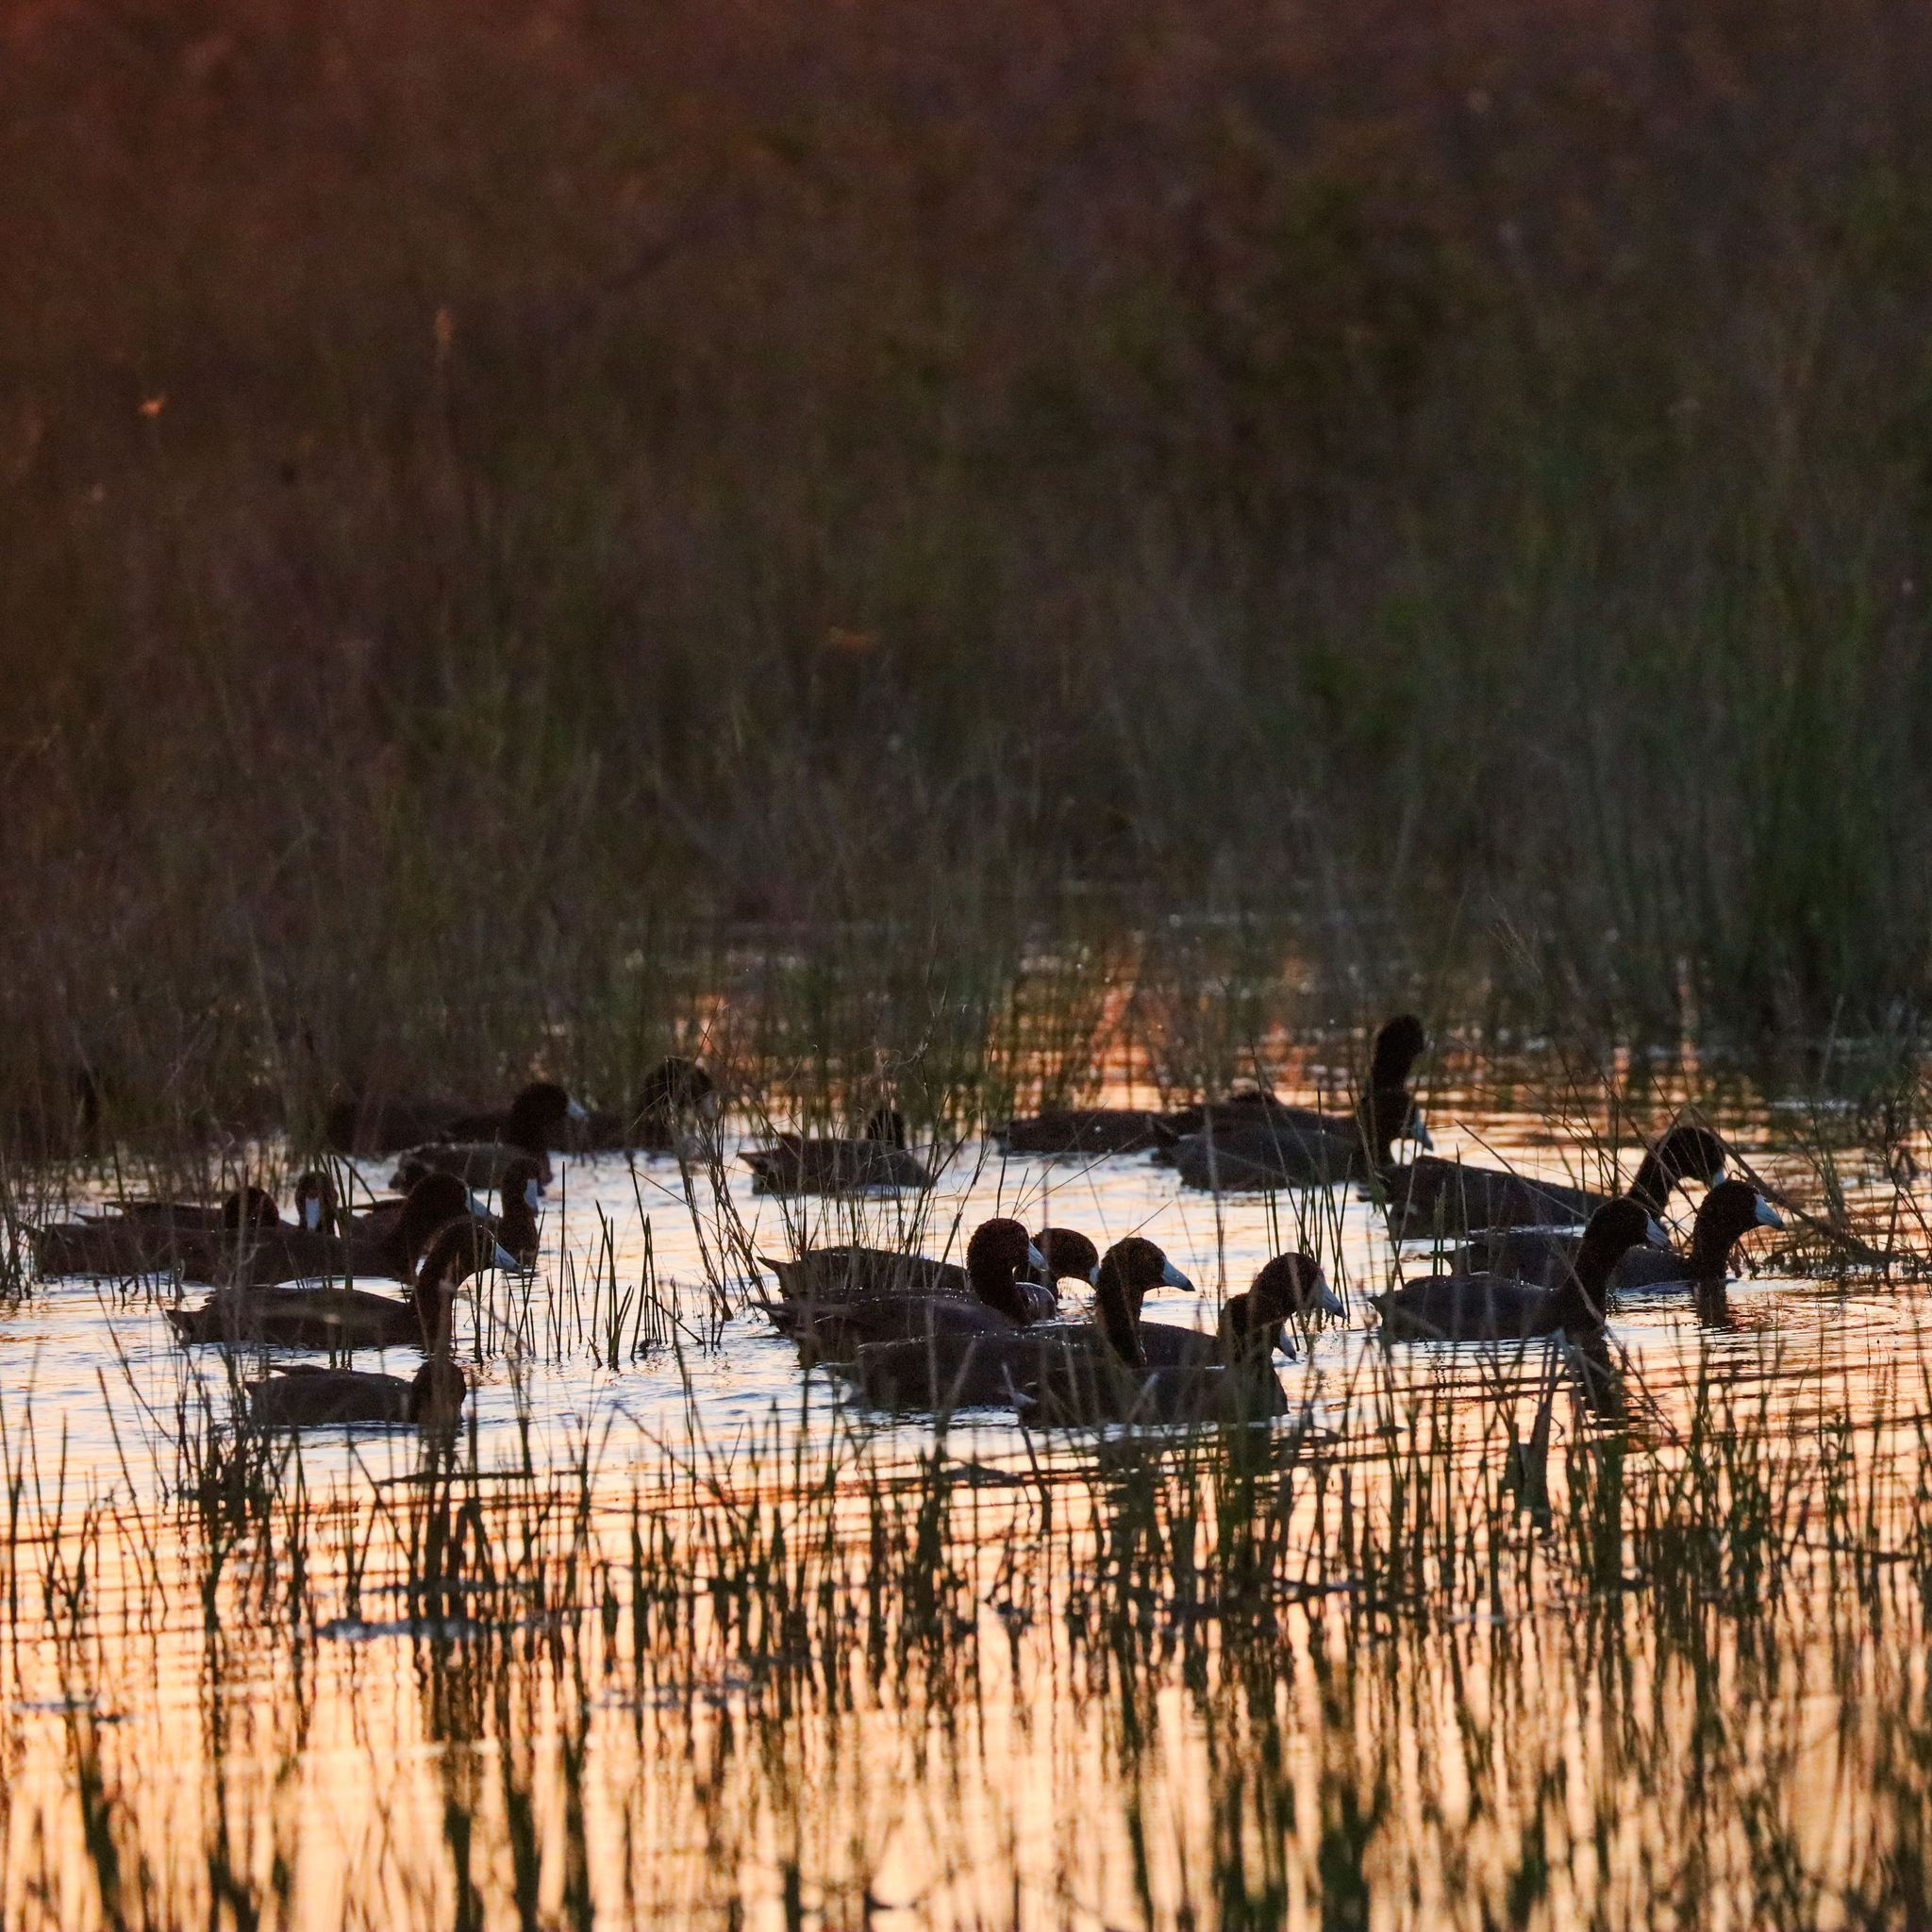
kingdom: Animalia
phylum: Chordata
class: Aves
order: Gruiformes
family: Rallidae
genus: Fulica
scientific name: Fulica americana
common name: American coot
